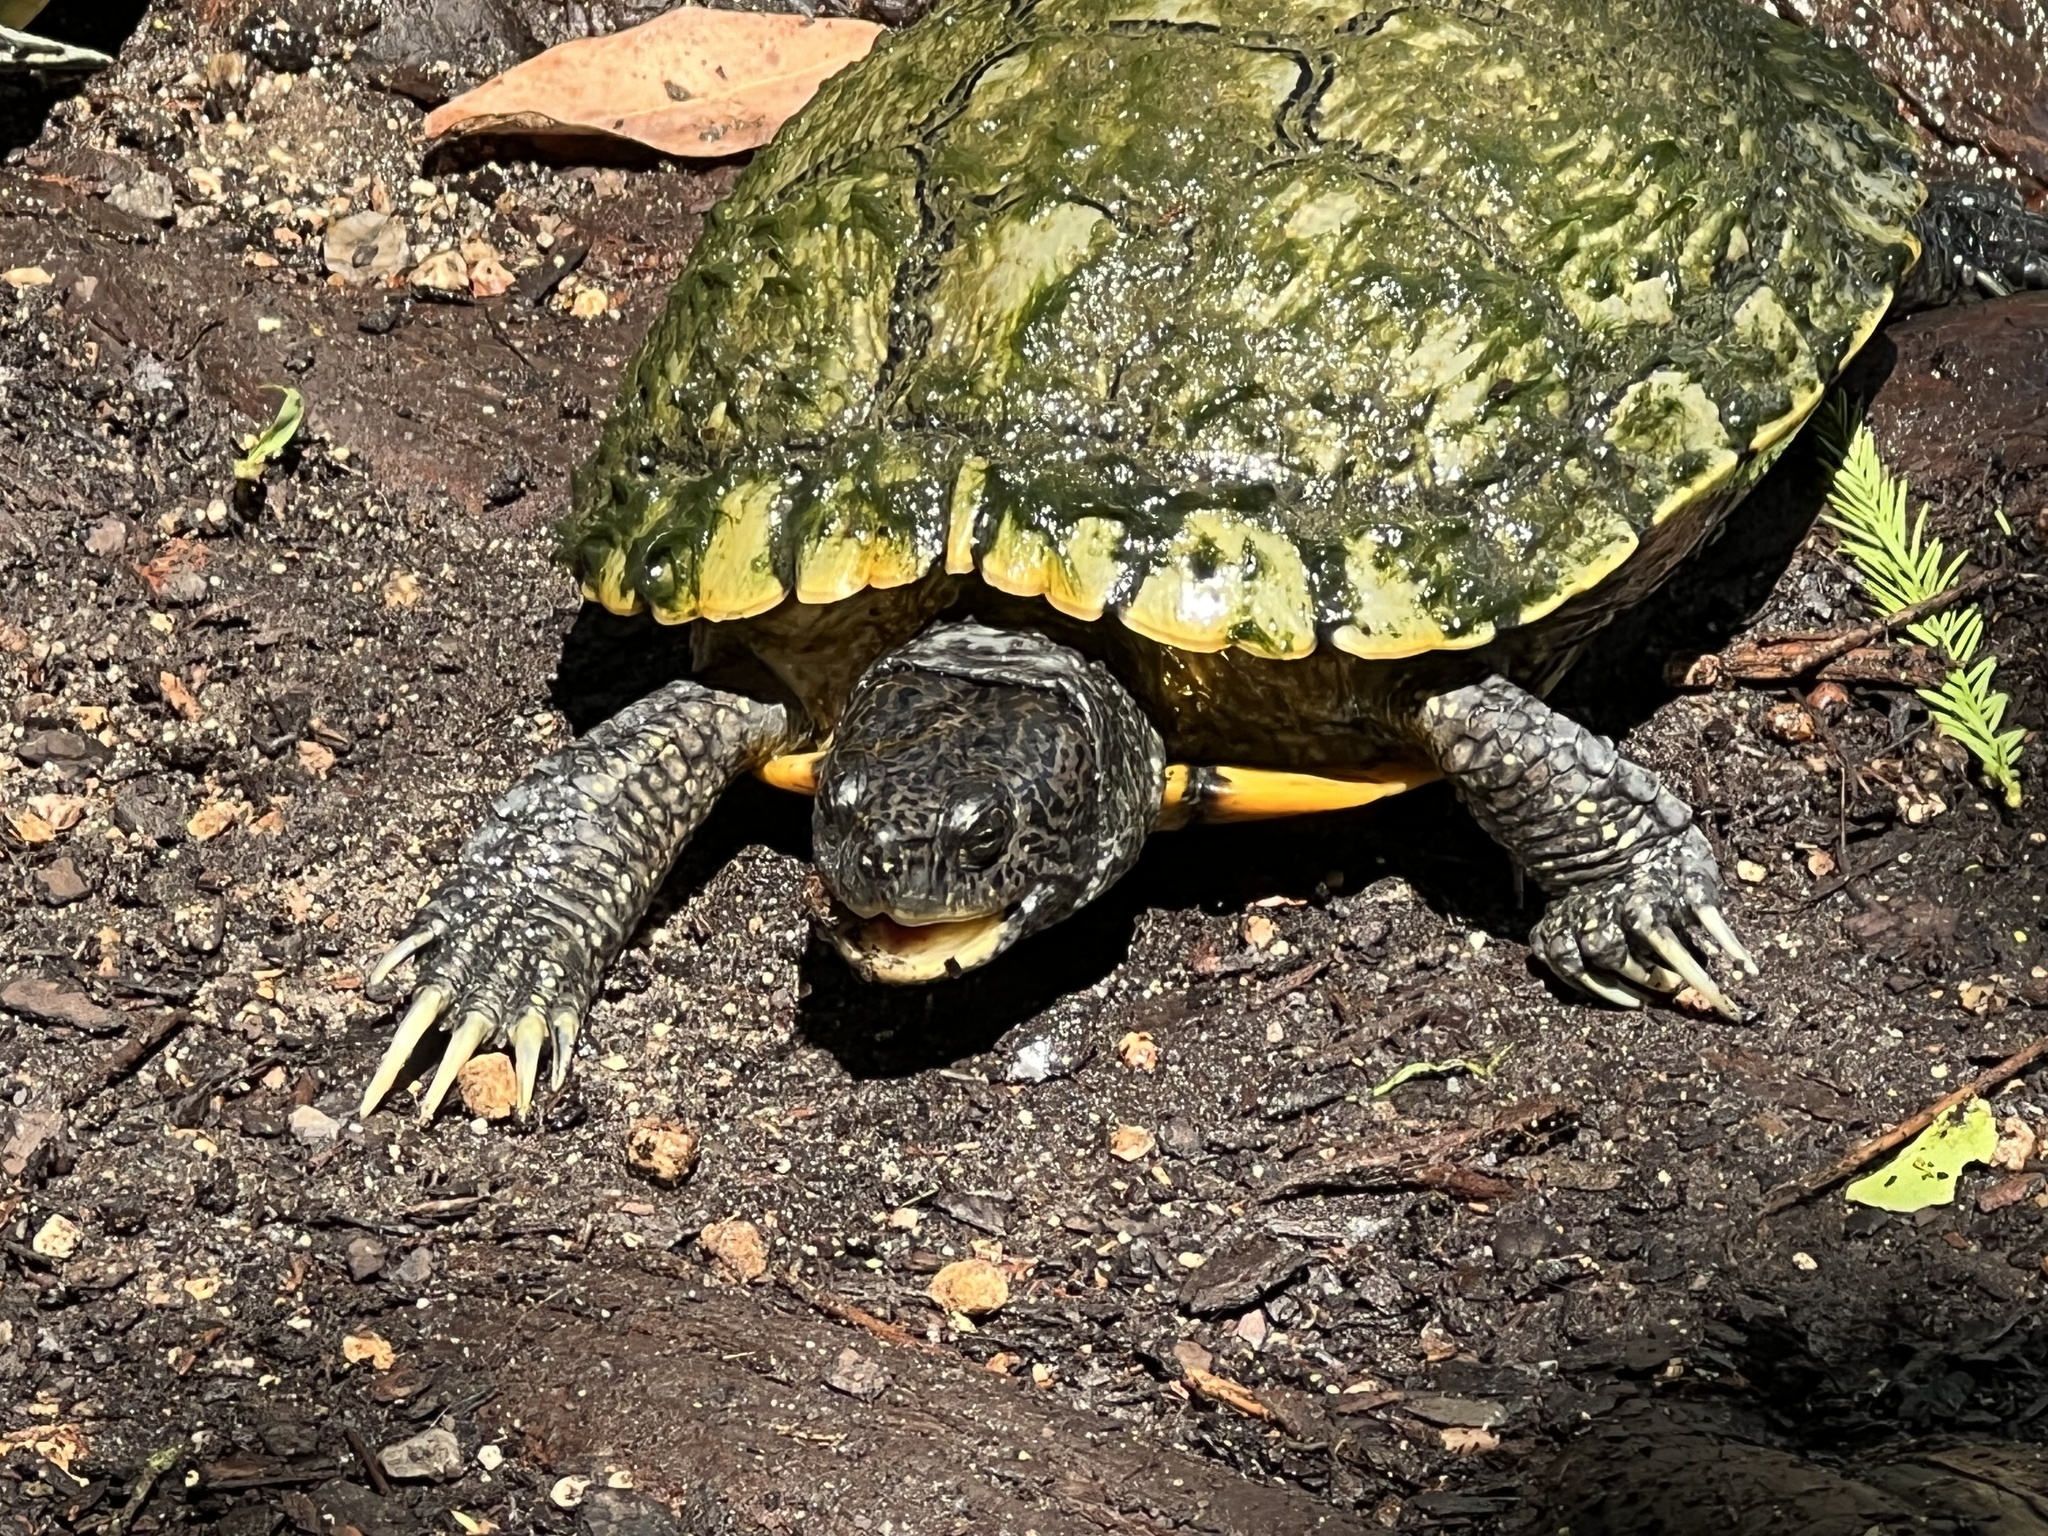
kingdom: Animalia
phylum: Chordata
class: Testudines
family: Emydidae
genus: Trachemys
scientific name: Trachemys scripta
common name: Slider
